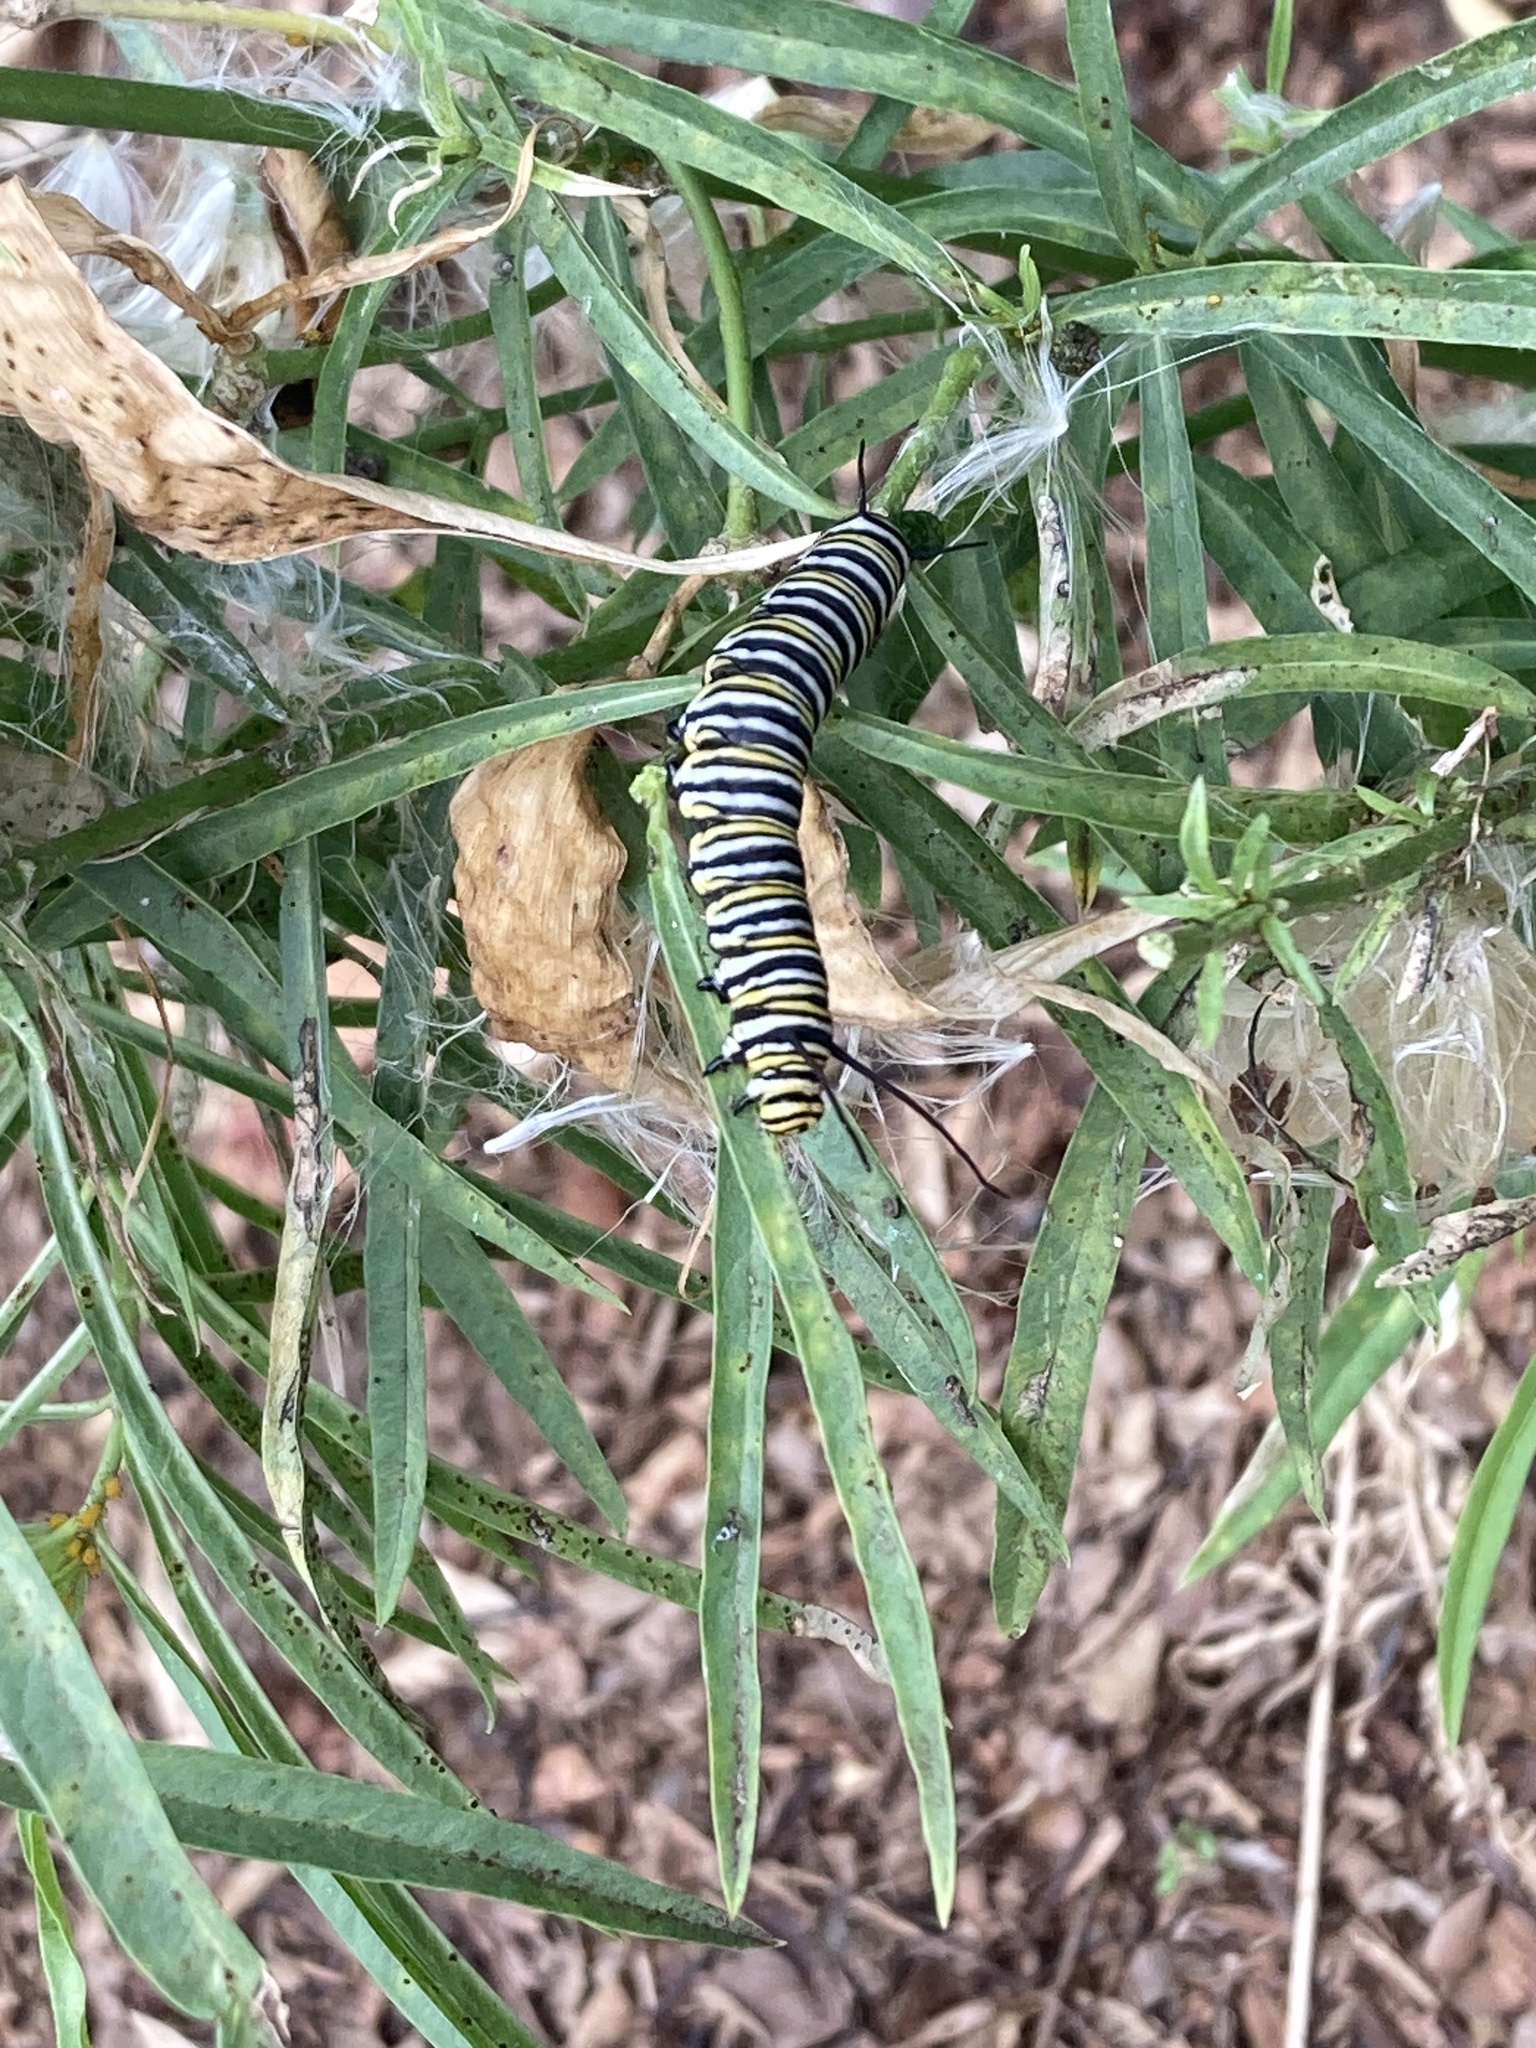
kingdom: Animalia
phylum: Arthropoda
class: Insecta
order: Lepidoptera
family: Nymphalidae
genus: Danaus
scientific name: Danaus plexippus
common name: Monarch
